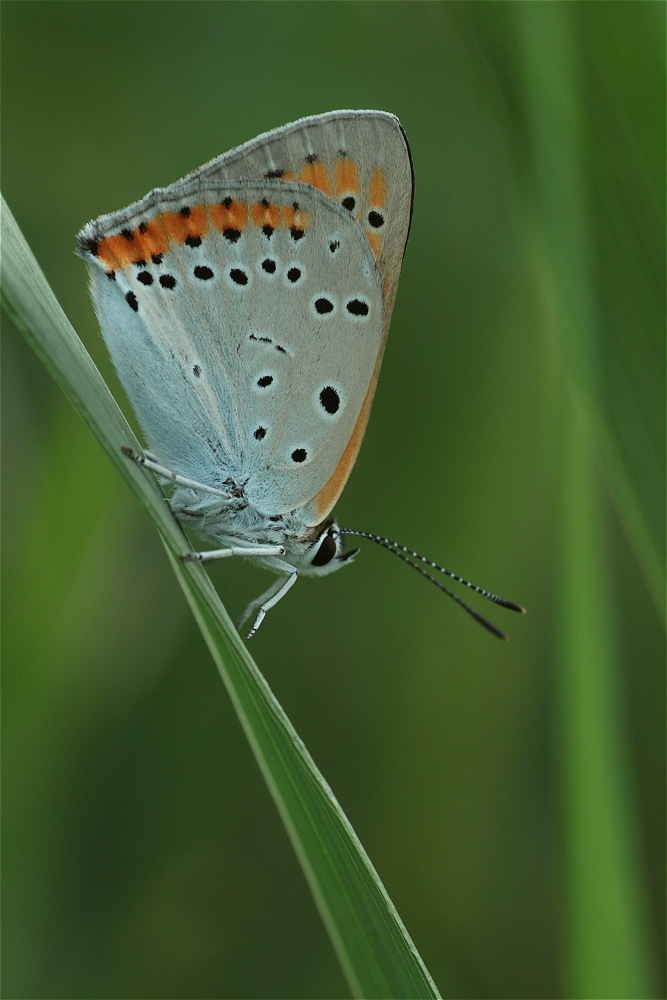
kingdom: Animalia
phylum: Arthropoda
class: Insecta
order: Lepidoptera
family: Lycaenidae
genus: Lycaena
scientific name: Lycaena dispar
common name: Large copper
